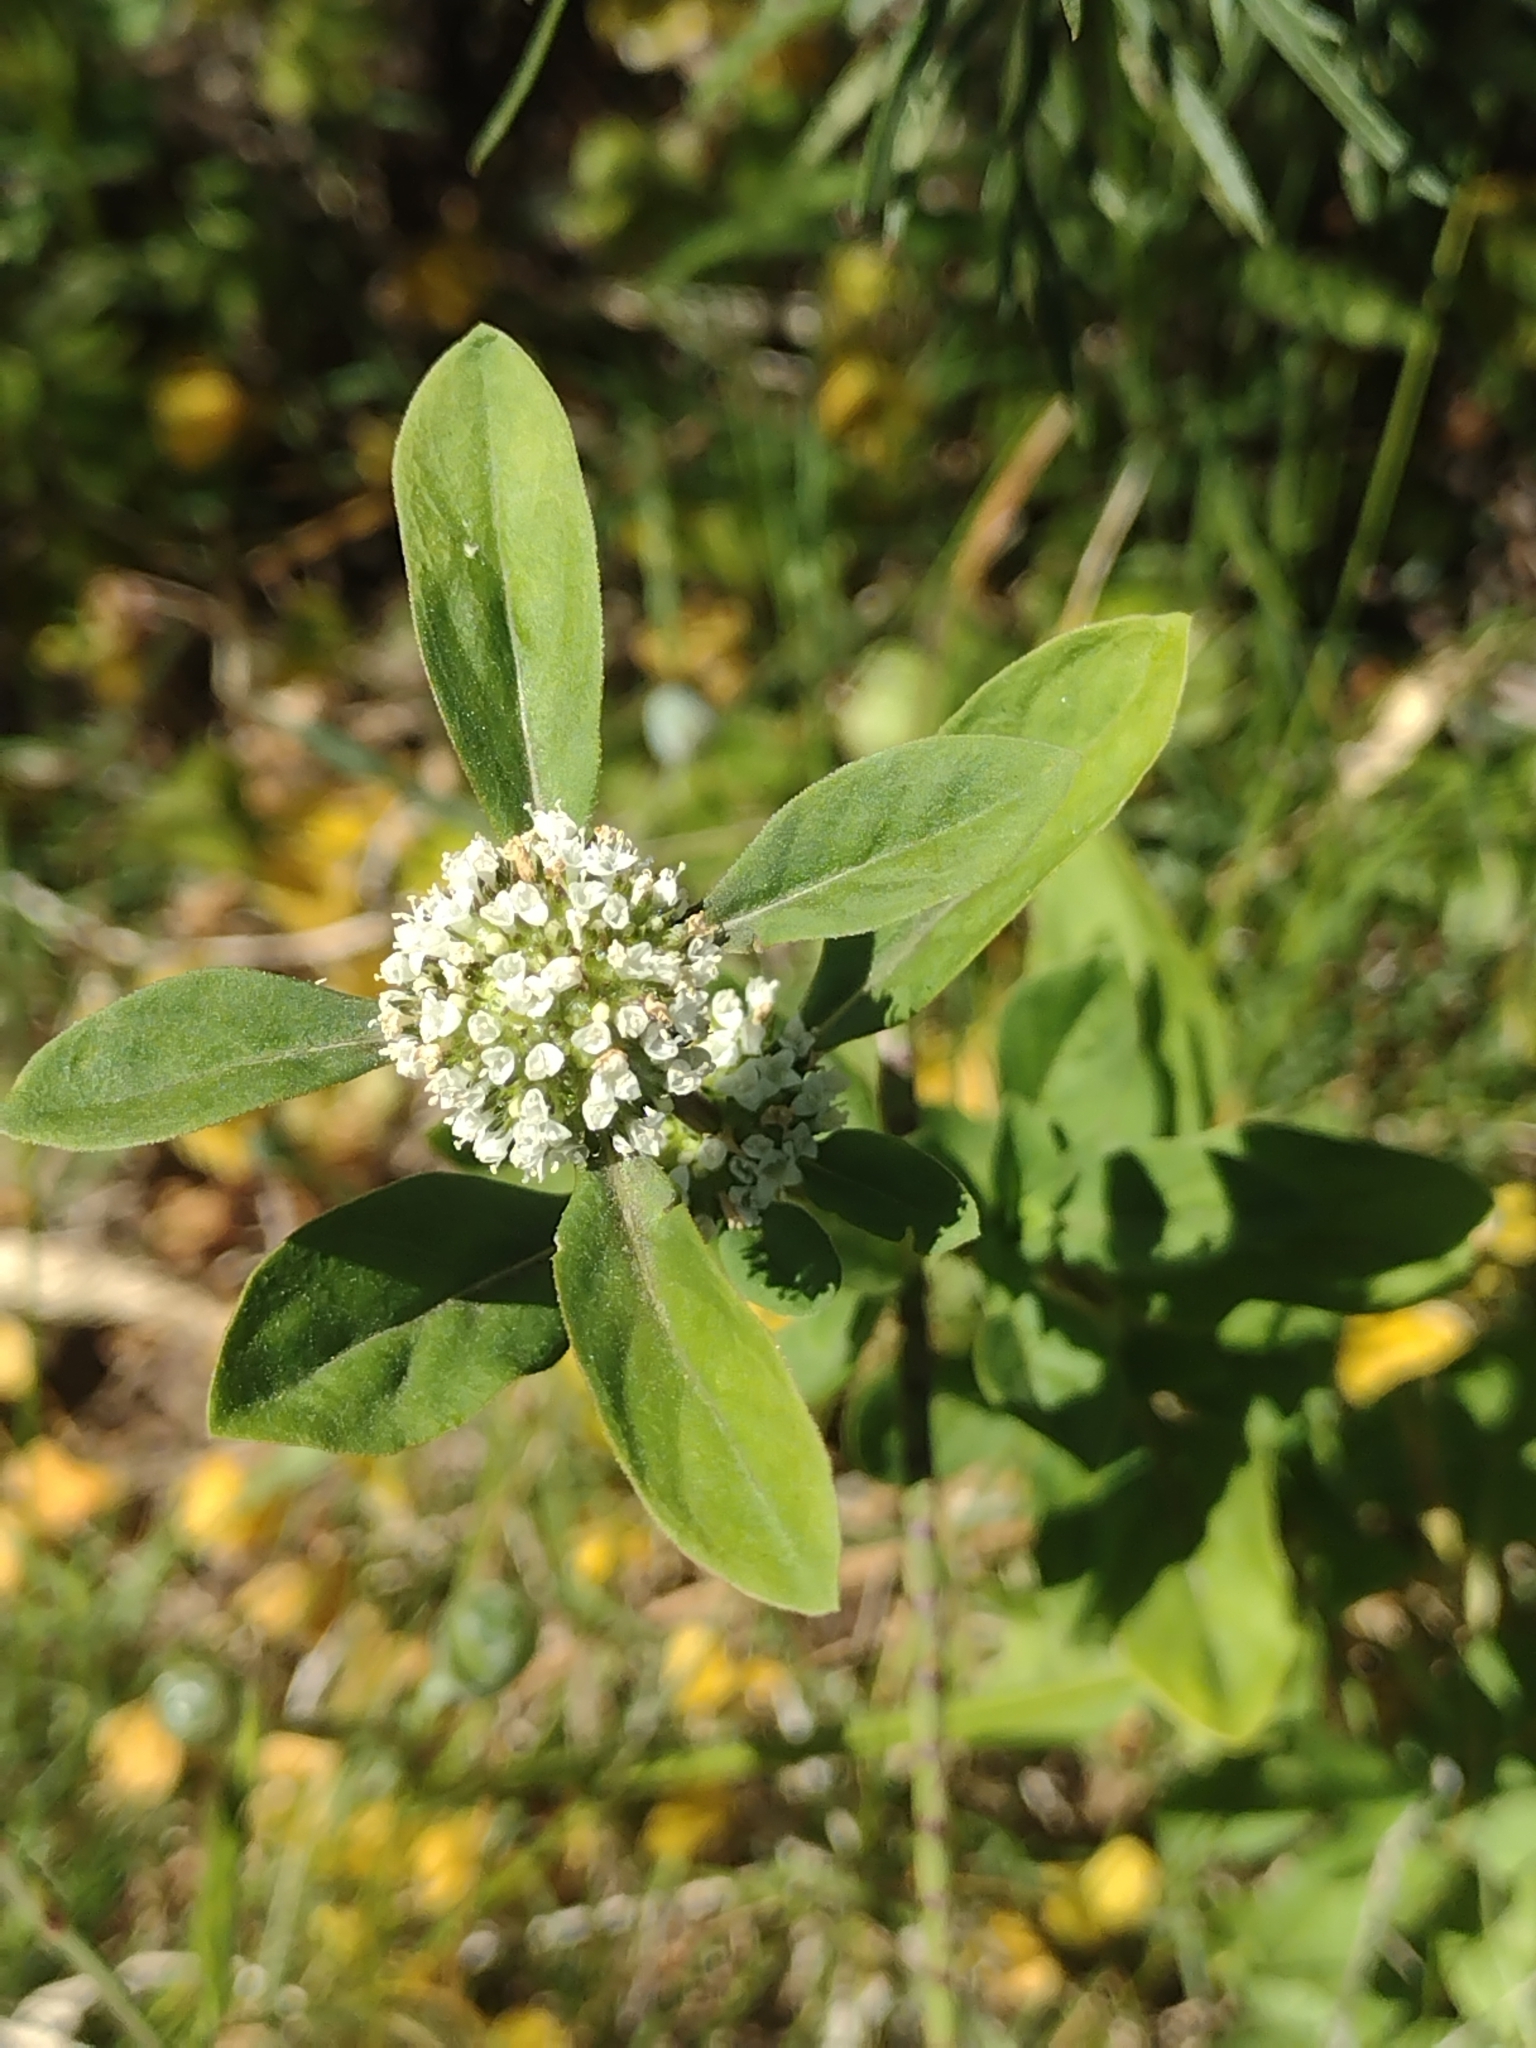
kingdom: Plantae
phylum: Tracheophyta
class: Magnoliopsida
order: Gentianales
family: Rubiaceae
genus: Spermacoce
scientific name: Spermacoce dasycephala
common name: False buttonweed
